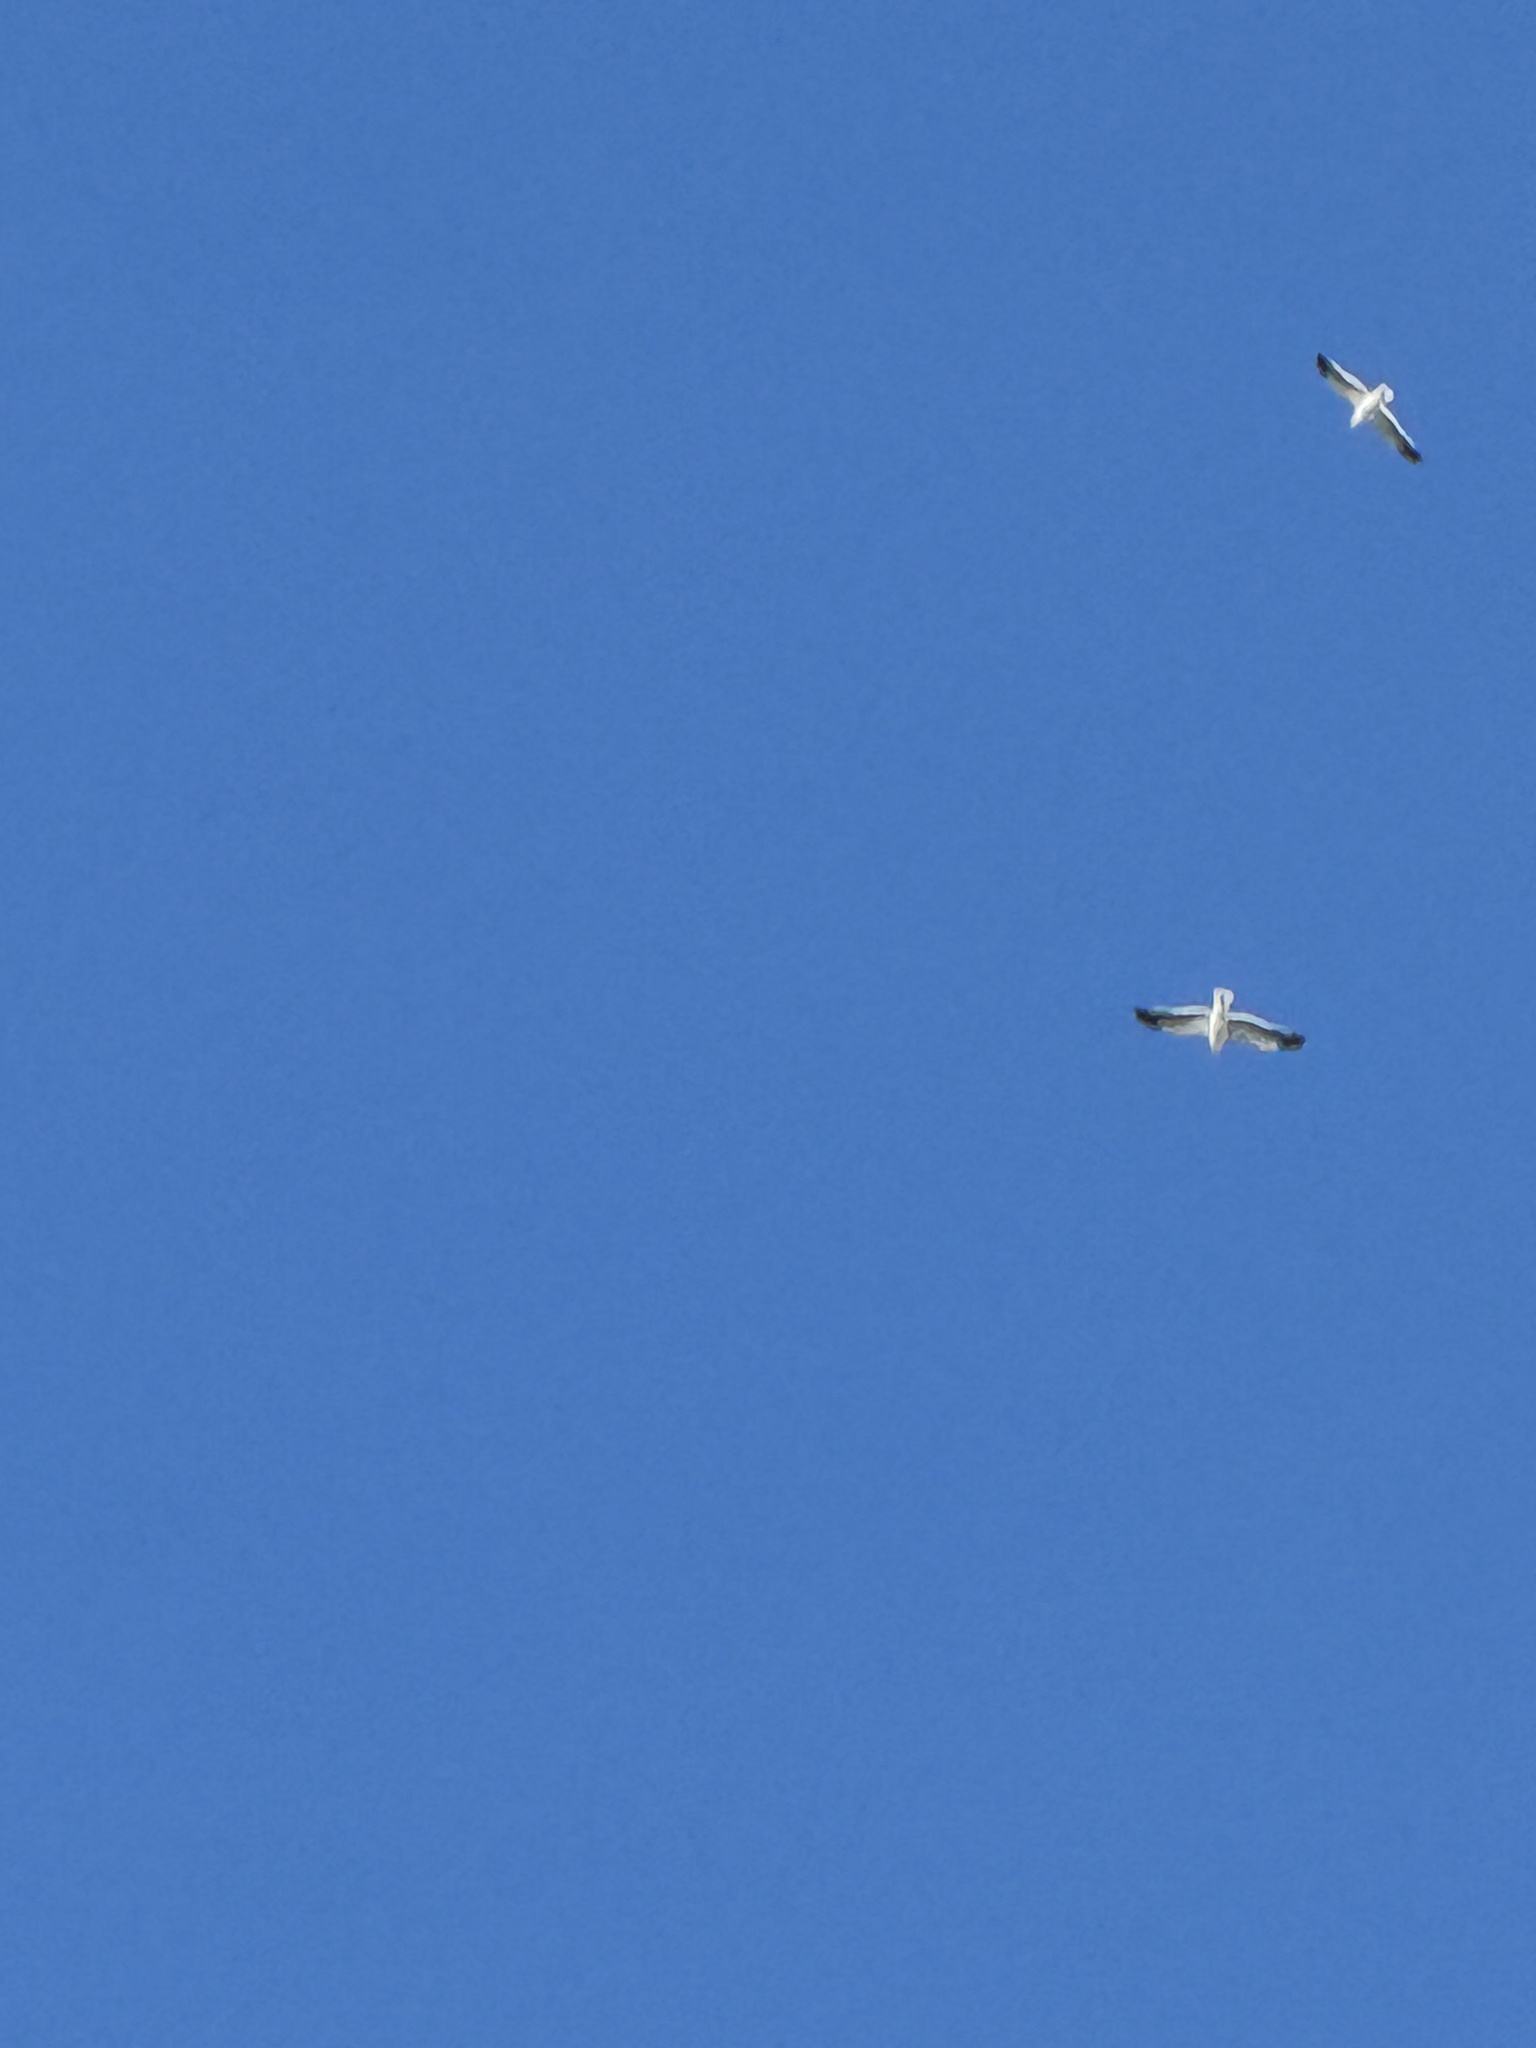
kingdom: Animalia
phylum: Chordata
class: Aves
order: Charadriiformes
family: Laridae
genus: Larus
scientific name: Larus occidentalis
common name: Western gull
